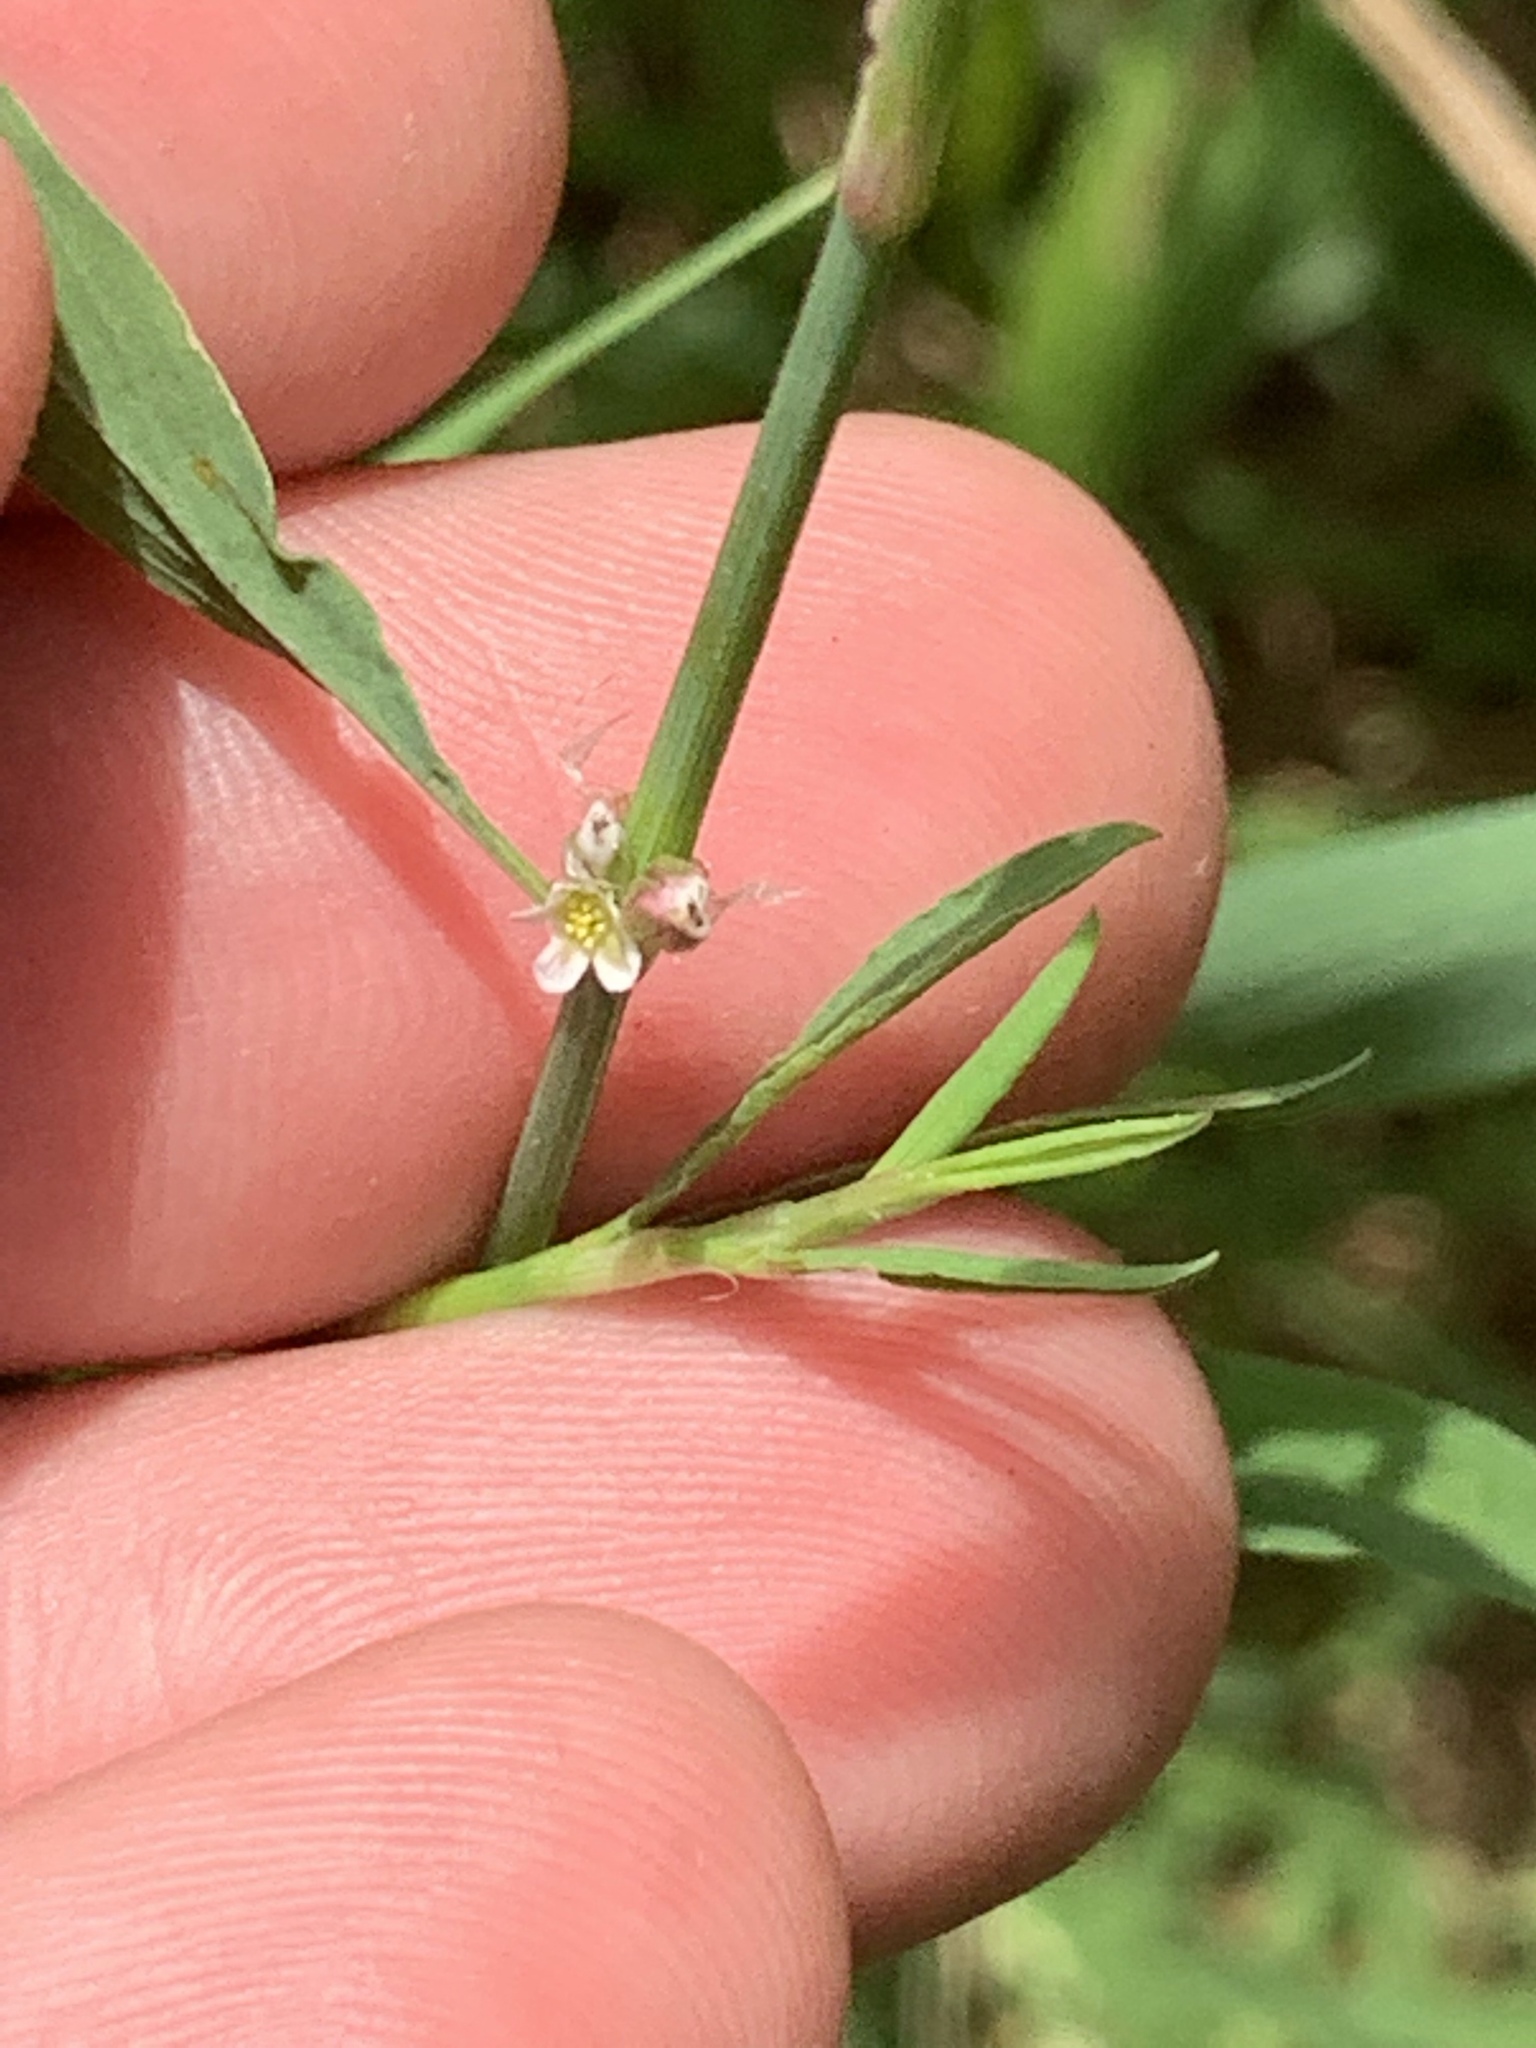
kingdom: Plantae
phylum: Tracheophyta
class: Magnoliopsida
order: Caryophyllales
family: Polygonaceae
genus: Polygonum
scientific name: Polygonum aviculare
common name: Prostrate knotweed
